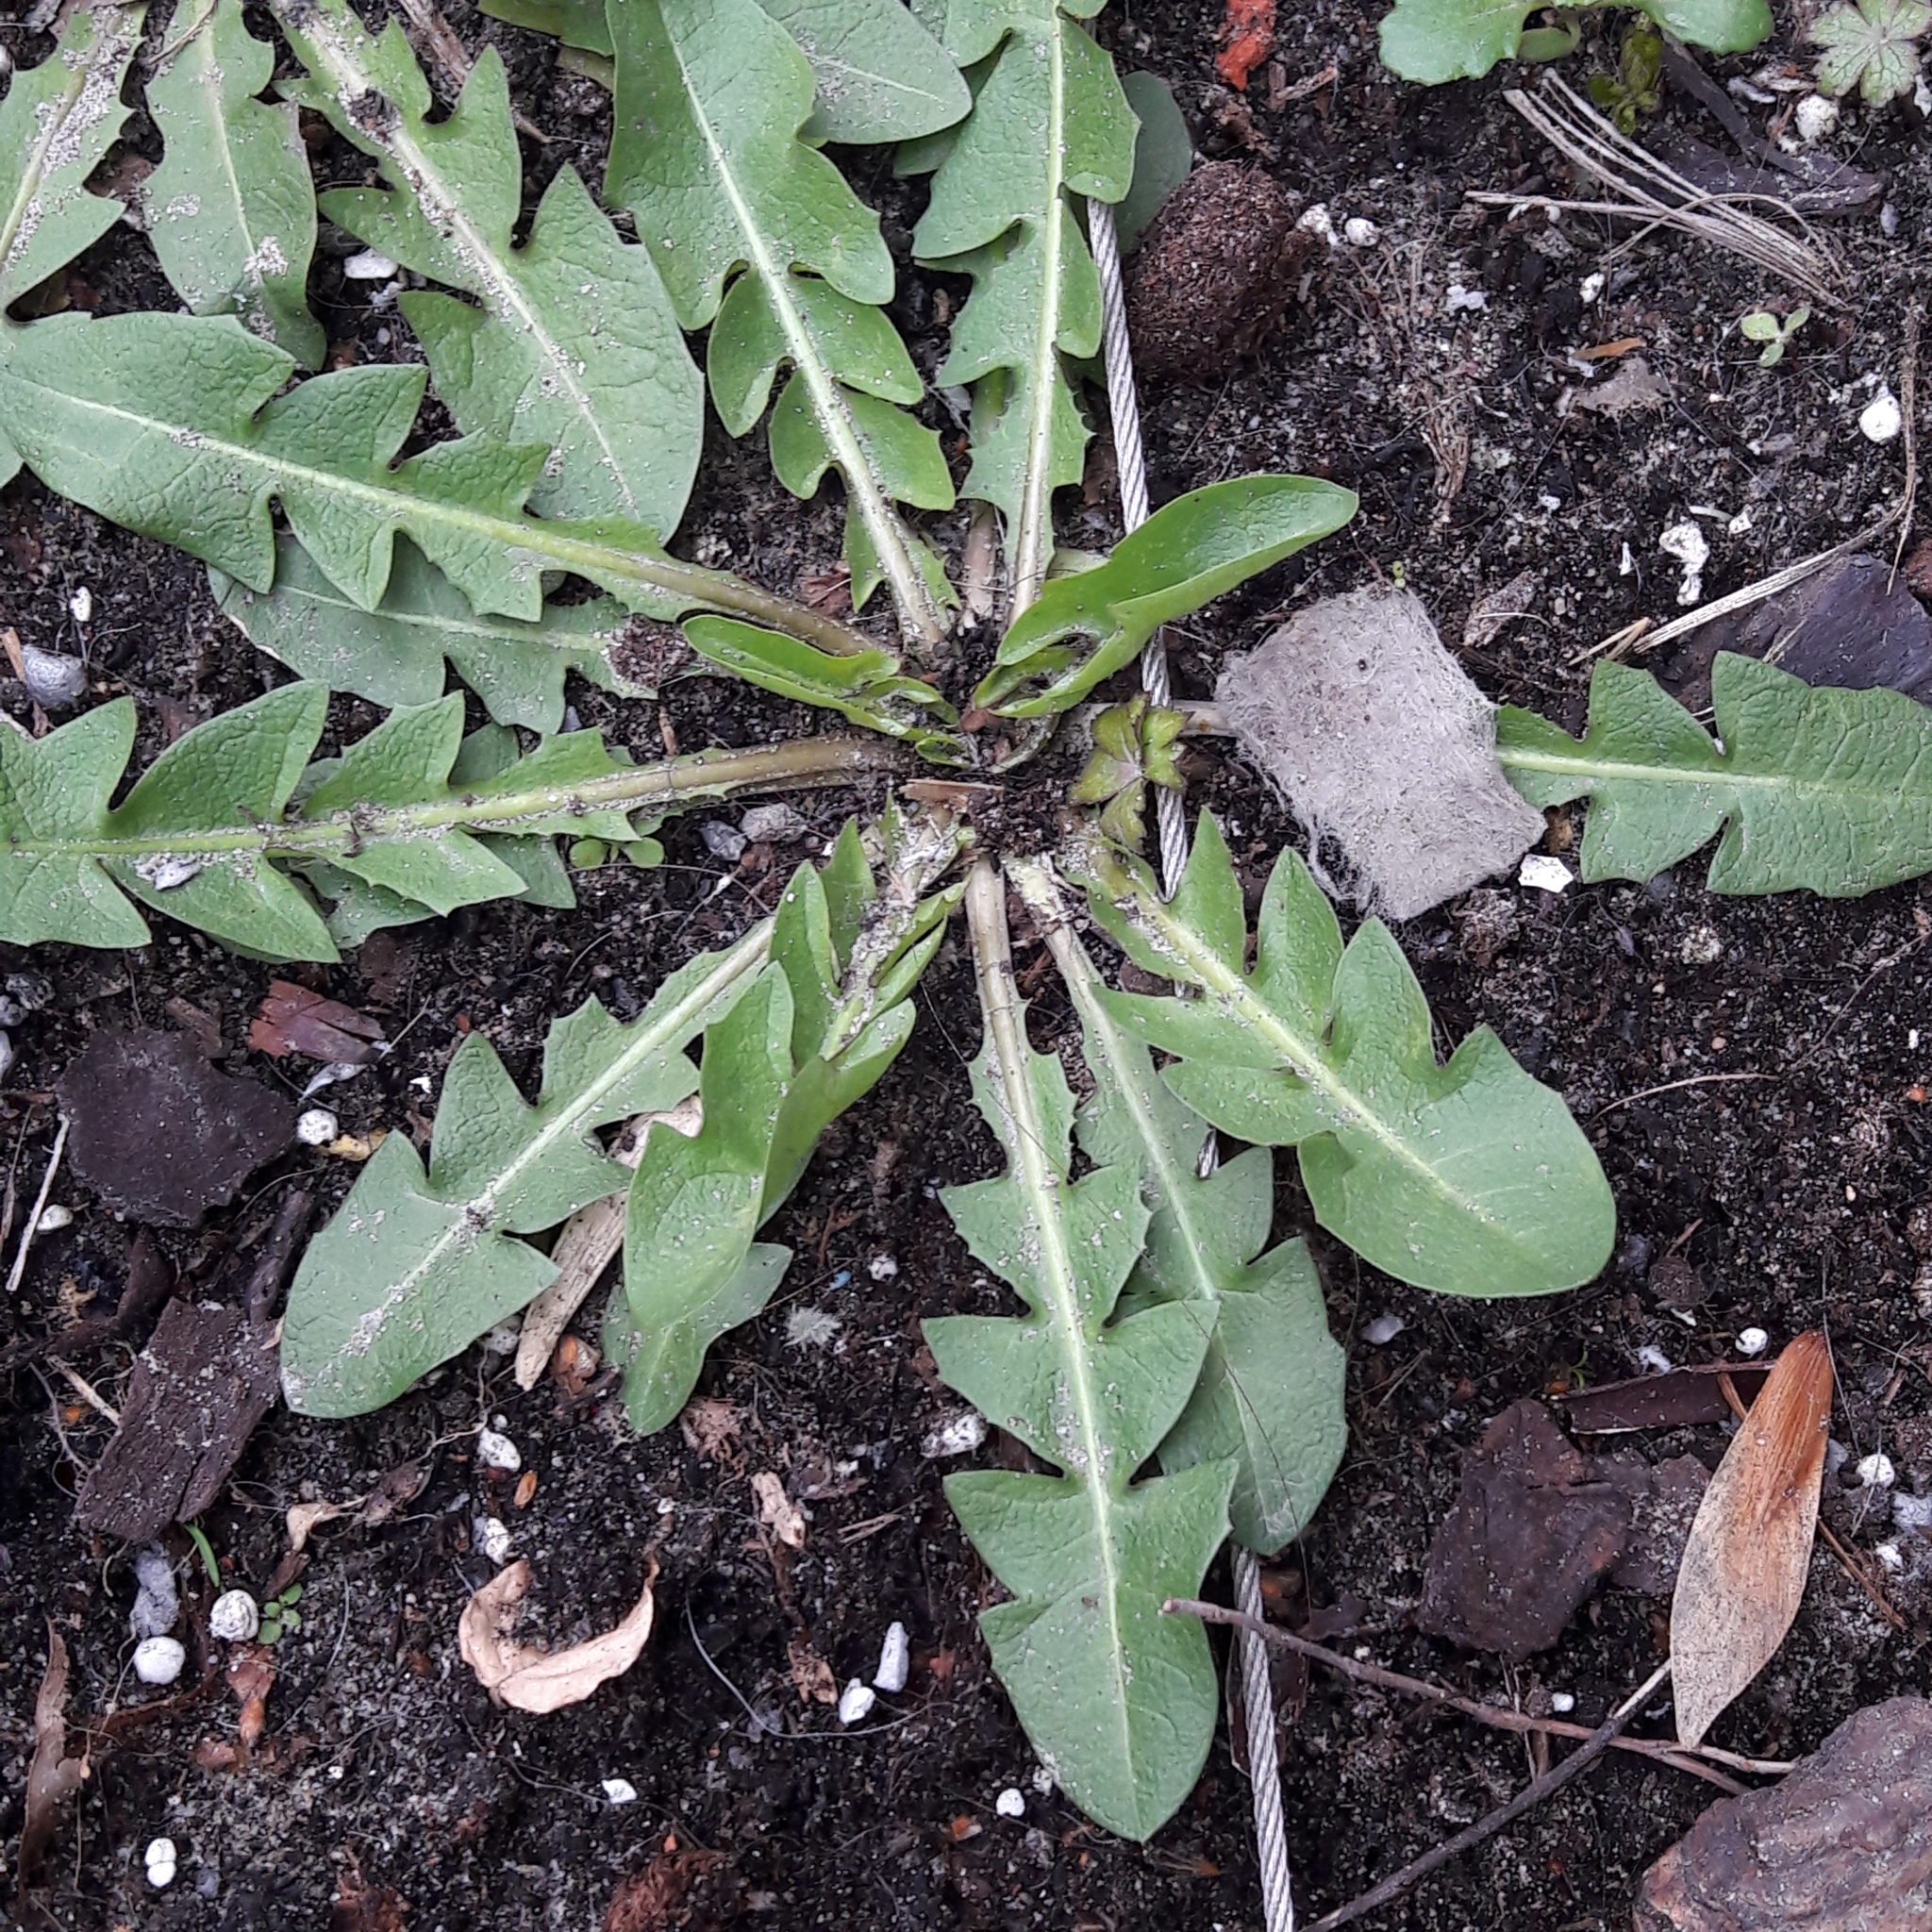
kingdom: Plantae
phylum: Tracheophyta
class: Magnoliopsida
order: Asterales
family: Asteraceae
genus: Taraxacum
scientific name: Taraxacum officinale
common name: Common dandelion
